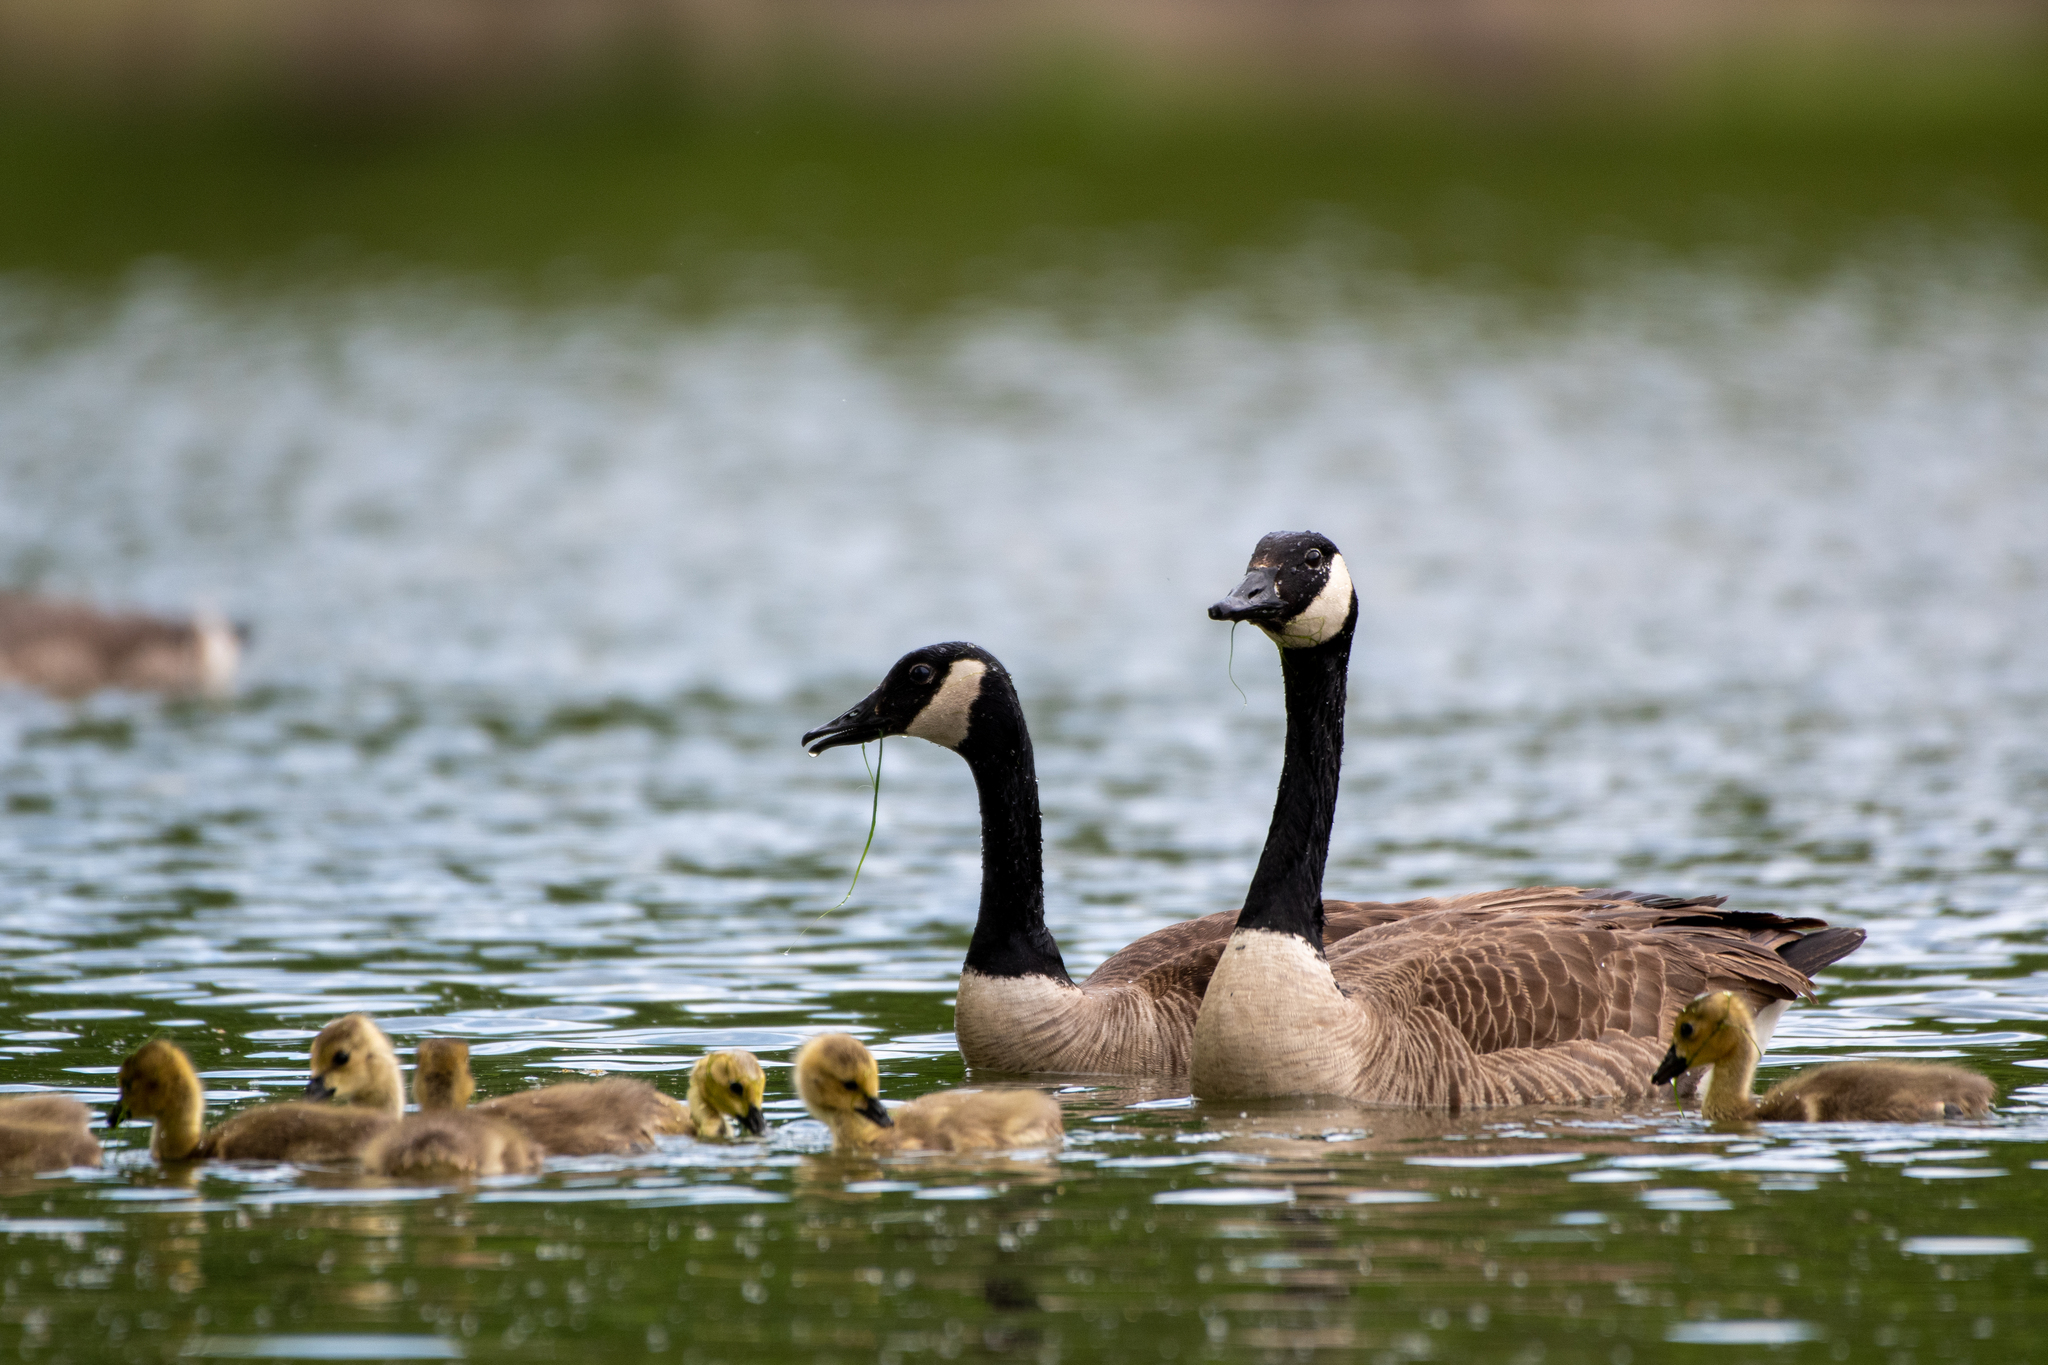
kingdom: Animalia
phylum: Chordata
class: Aves
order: Anseriformes
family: Anatidae
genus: Branta
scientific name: Branta canadensis
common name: Canada goose
